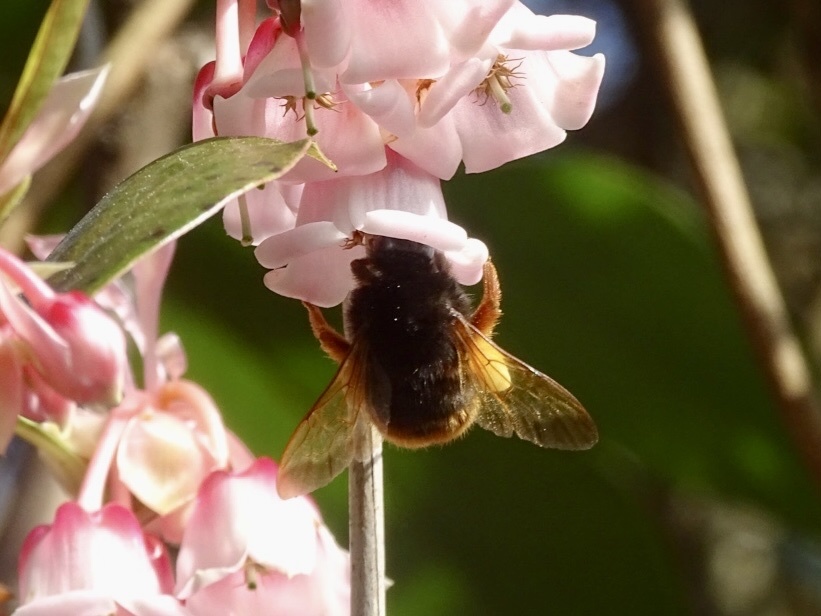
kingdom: Animalia
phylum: Arthropoda
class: Insecta
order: Hymenoptera
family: Apidae
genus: Bombus
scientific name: Bombus eximius
